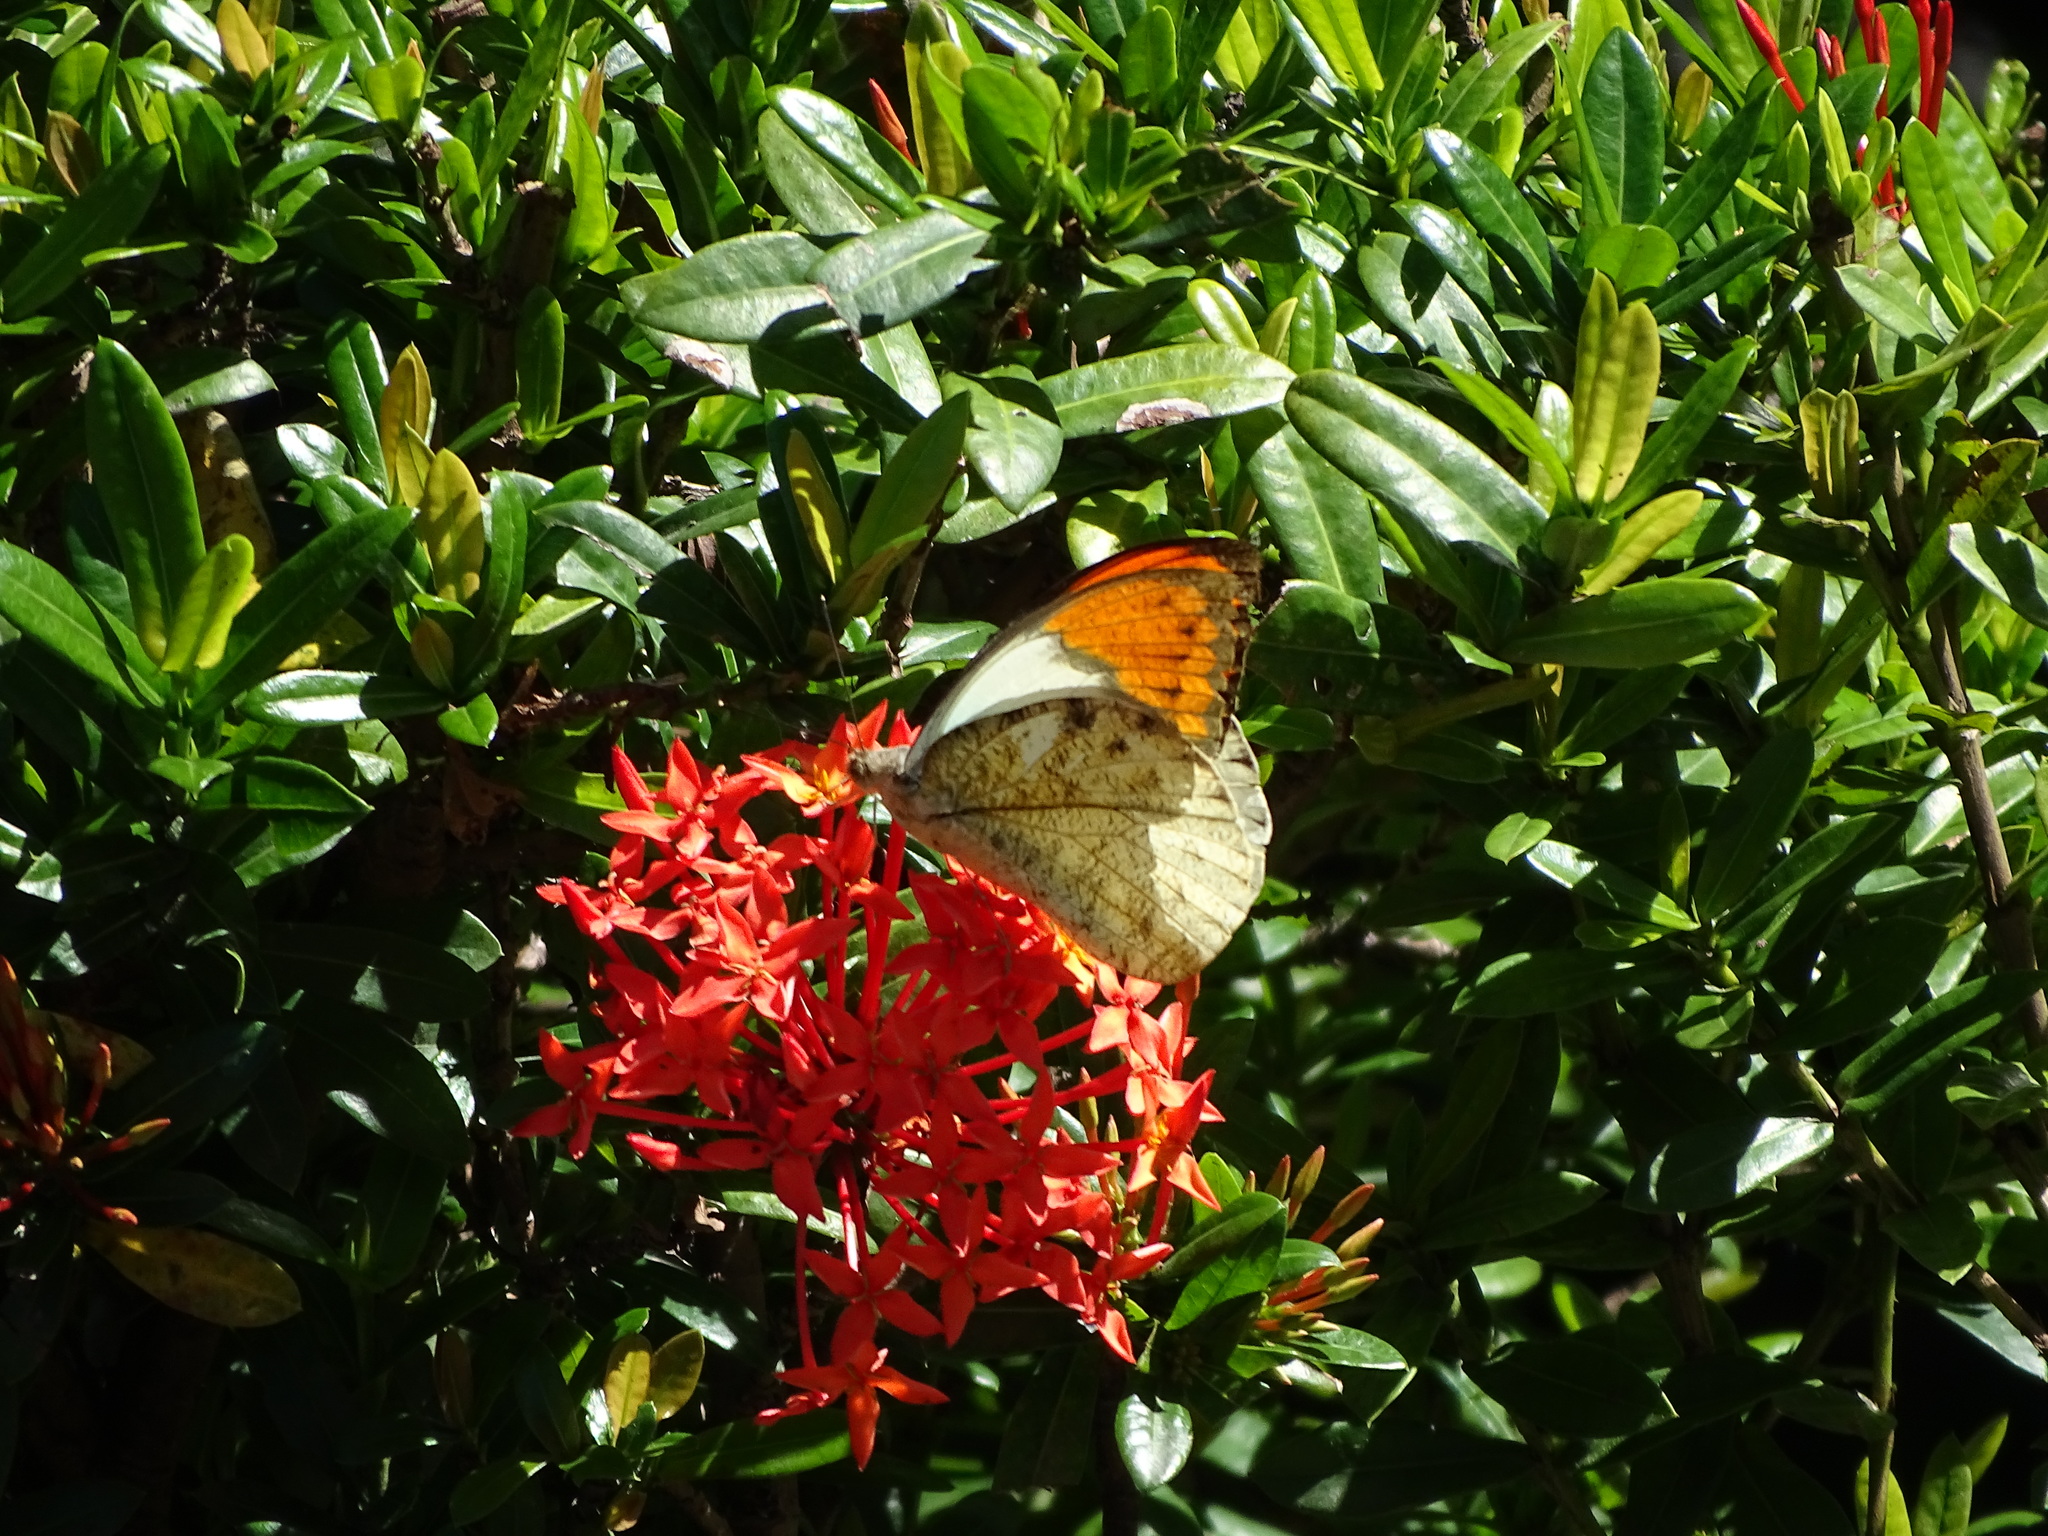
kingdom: Animalia
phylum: Arthropoda
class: Insecta
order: Lepidoptera
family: Pieridae
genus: Hebomoia
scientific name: Hebomoia glaucippe
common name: Great orange tip
